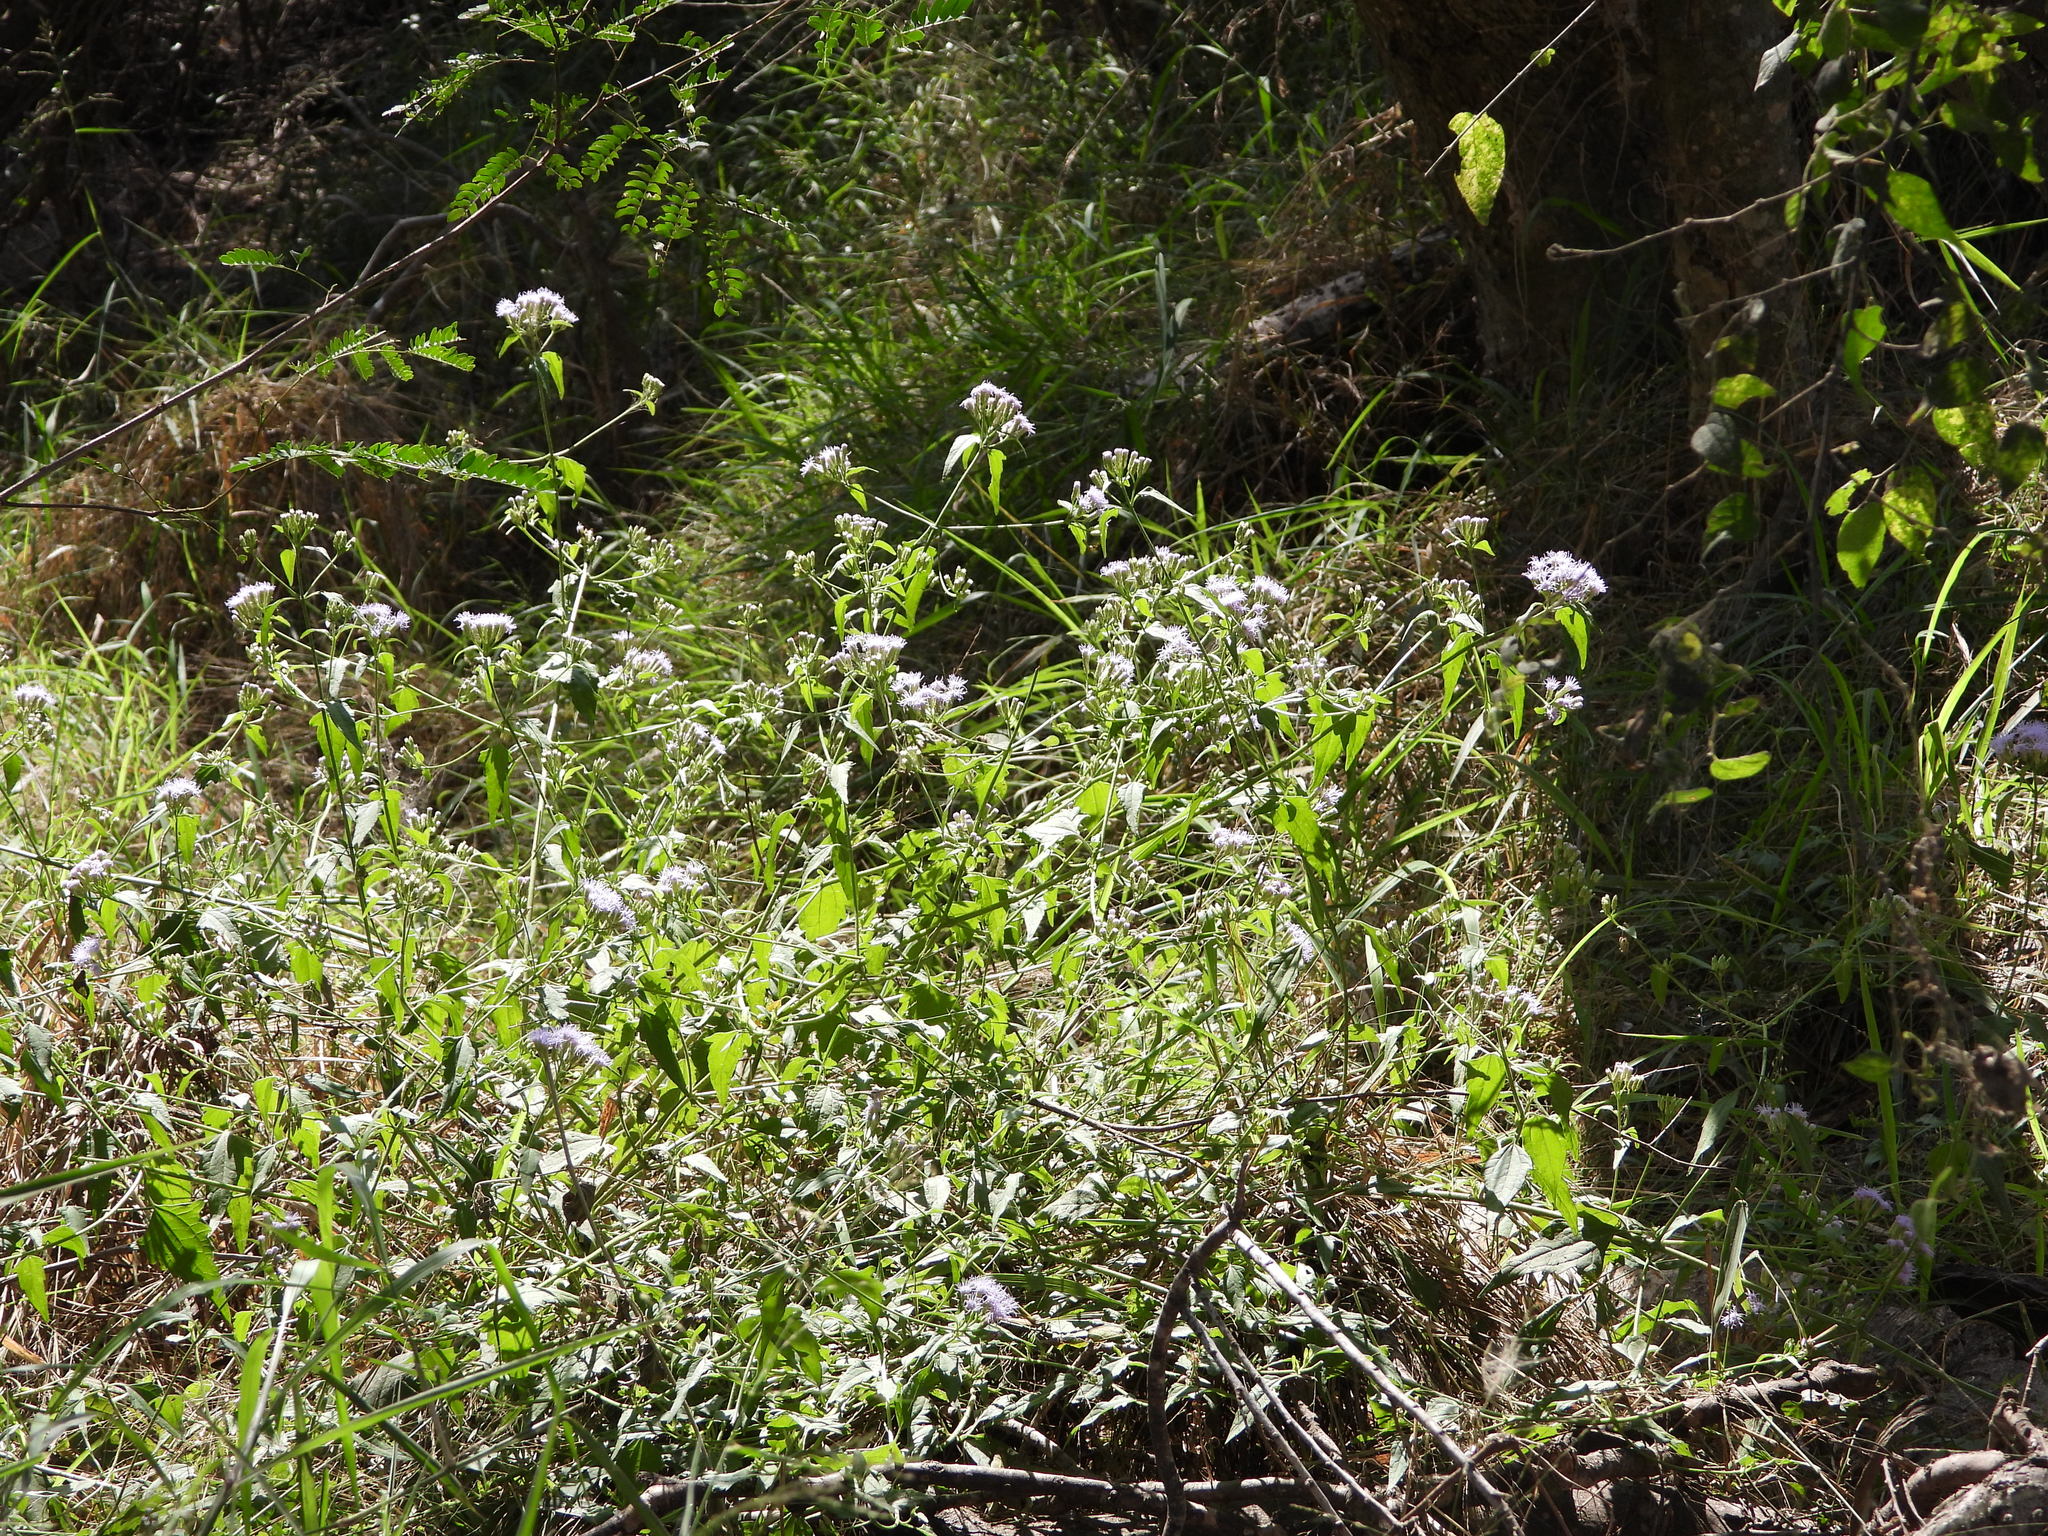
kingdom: Plantae
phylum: Tracheophyta
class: Magnoliopsida
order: Asterales
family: Asteraceae
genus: Chromolaena
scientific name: Chromolaena odorata
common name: Siamweed
